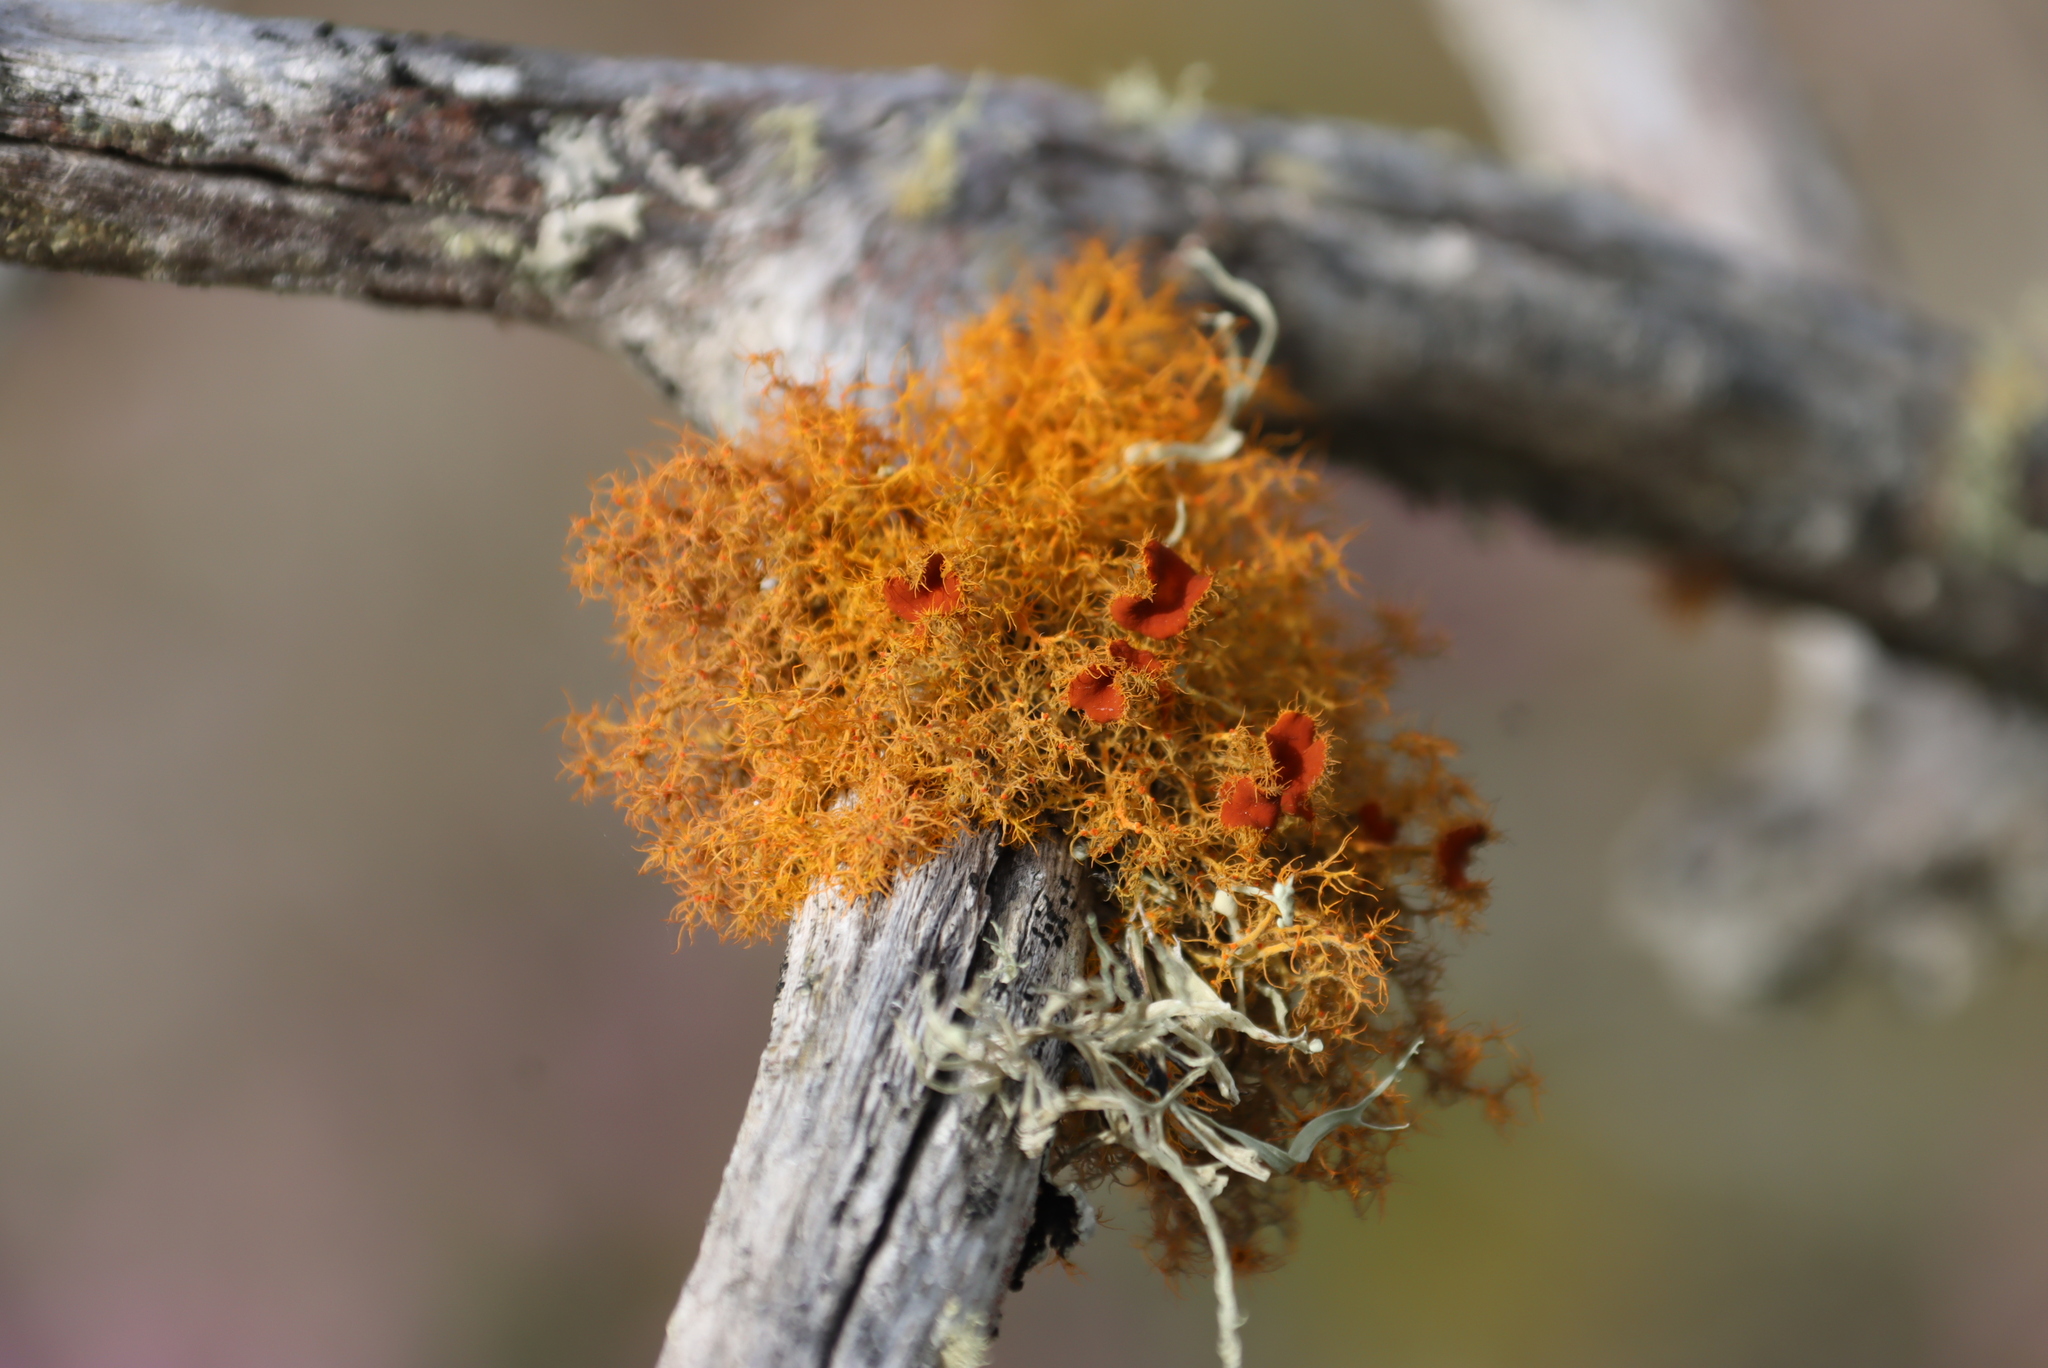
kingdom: Fungi
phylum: Ascomycota
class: Lecanoromycetes
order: Teloschistales
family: Teloschistaceae
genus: Teloschistes
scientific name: Teloschistes capensis
